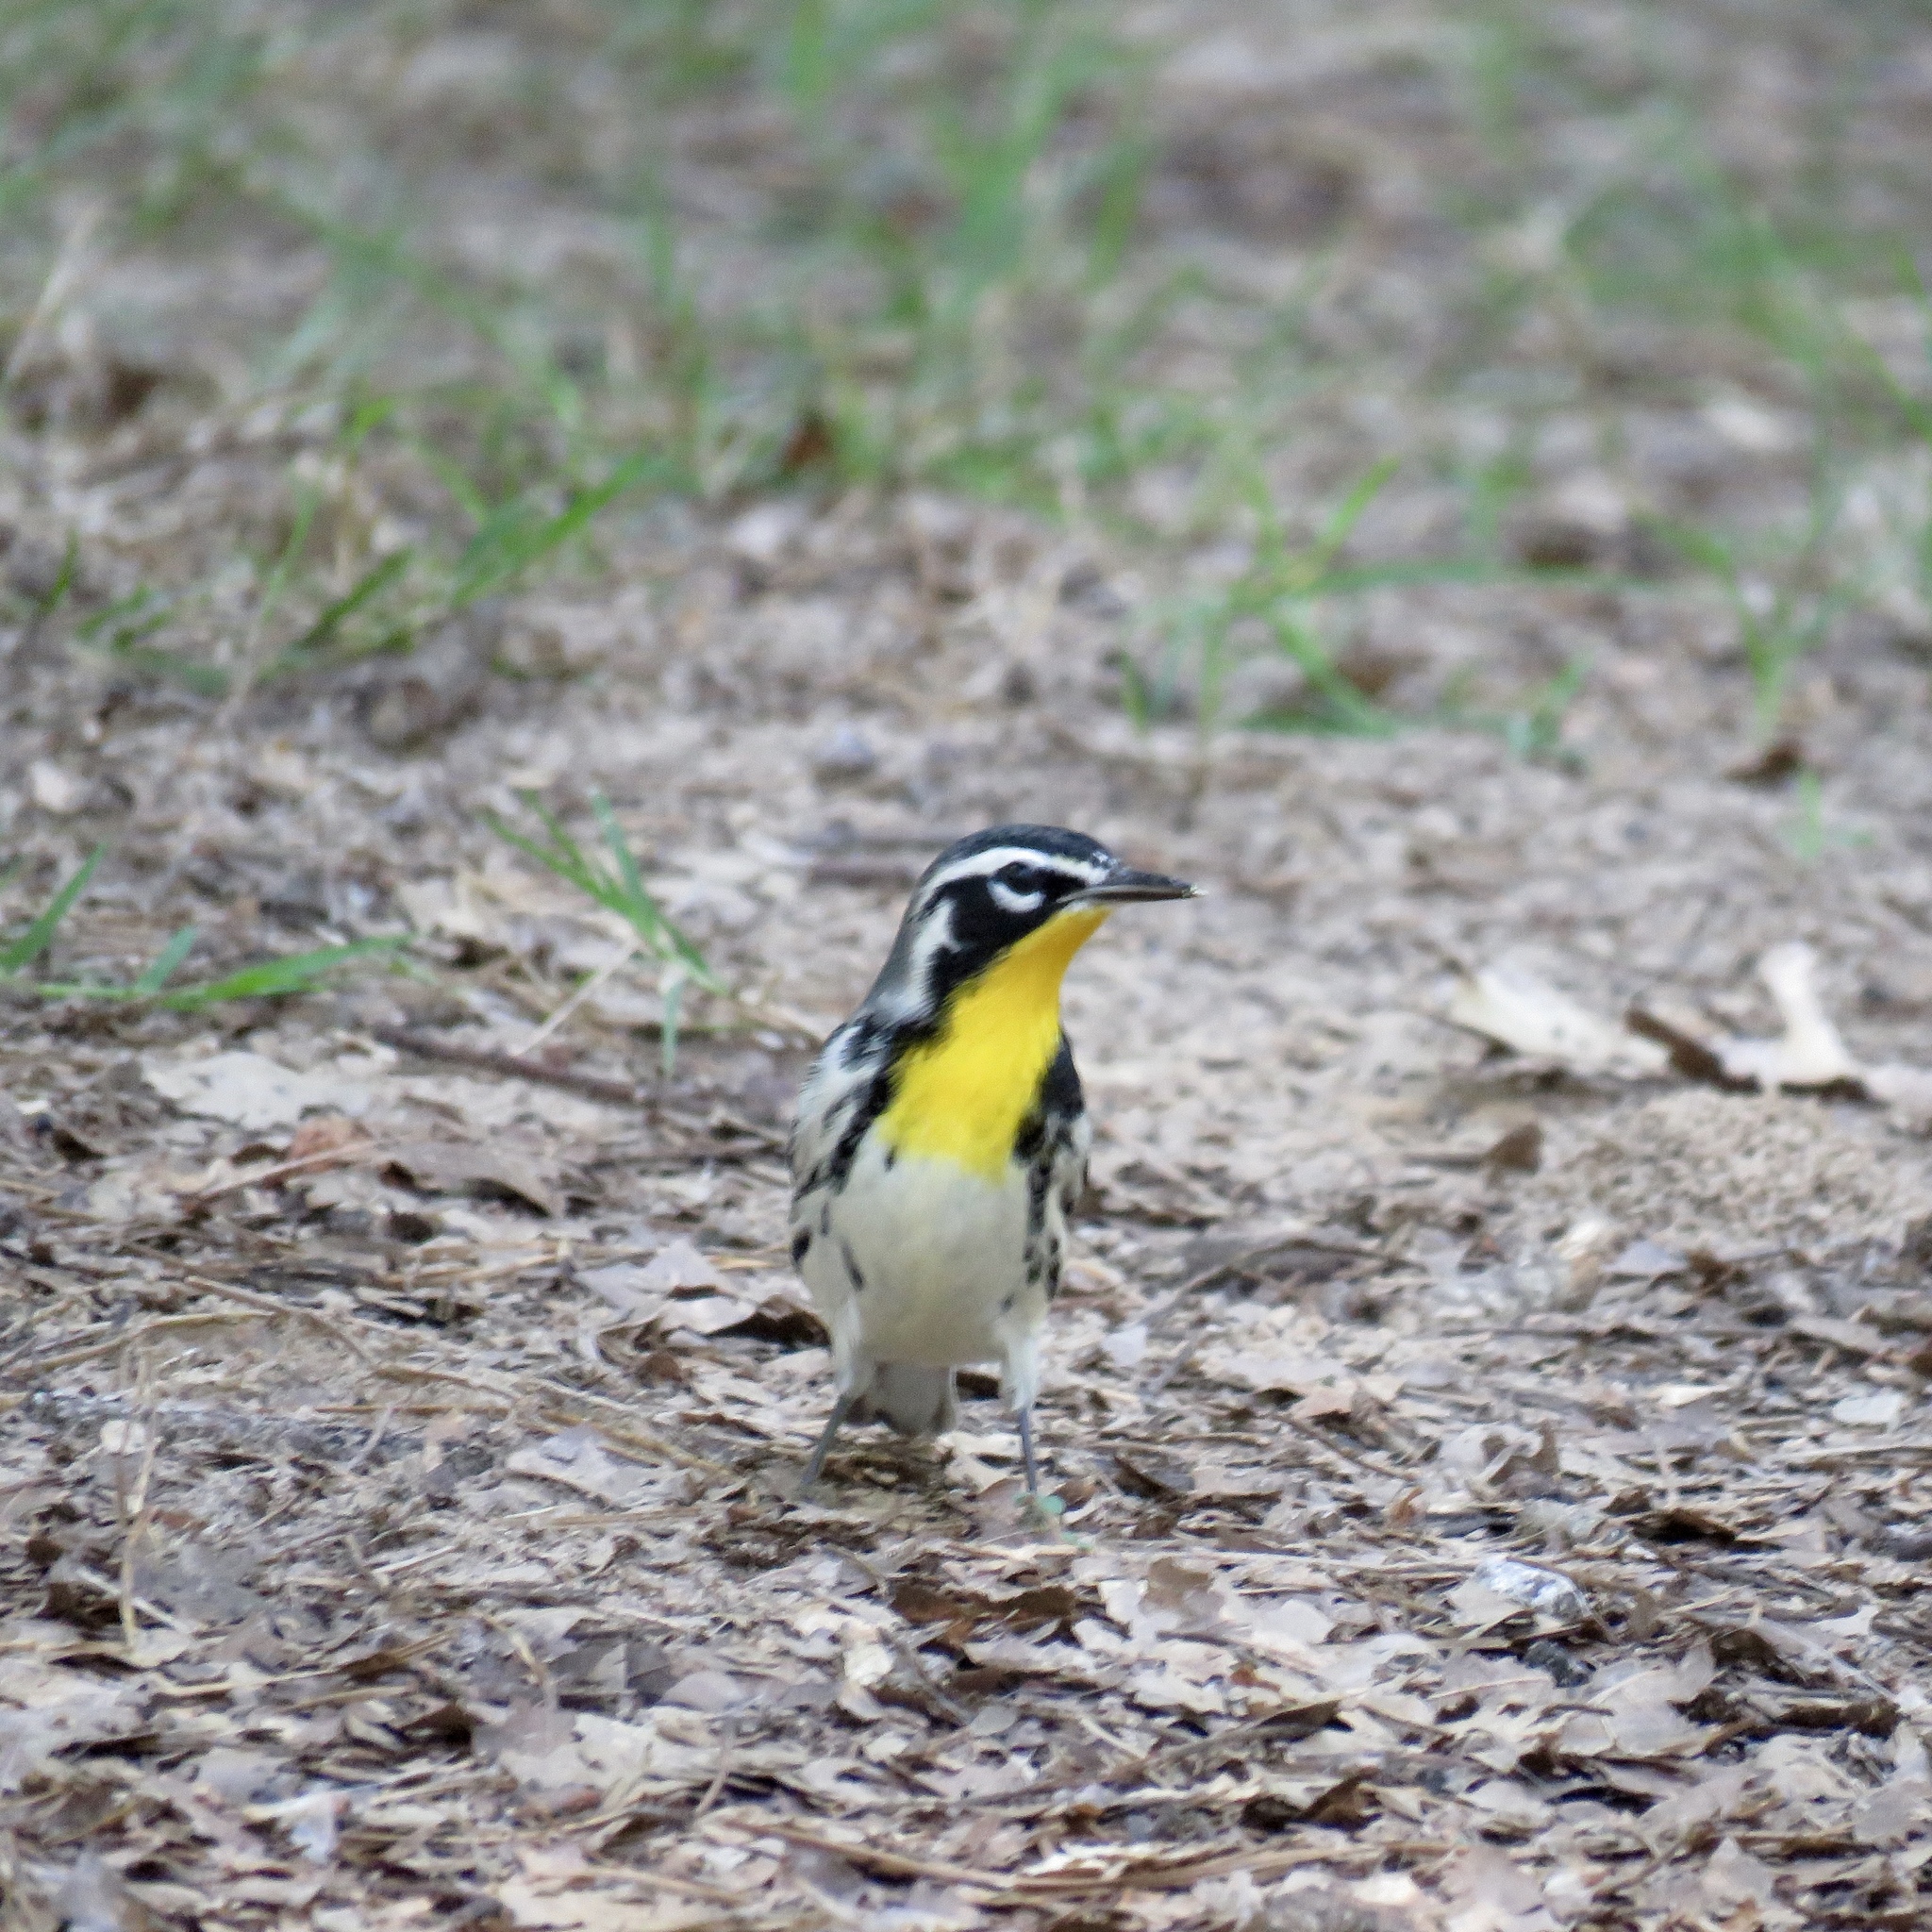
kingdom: Animalia
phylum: Chordata
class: Aves
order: Passeriformes
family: Parulidae
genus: Setophaga
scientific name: Setophaga dominica
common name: Yellow-throated warbler
